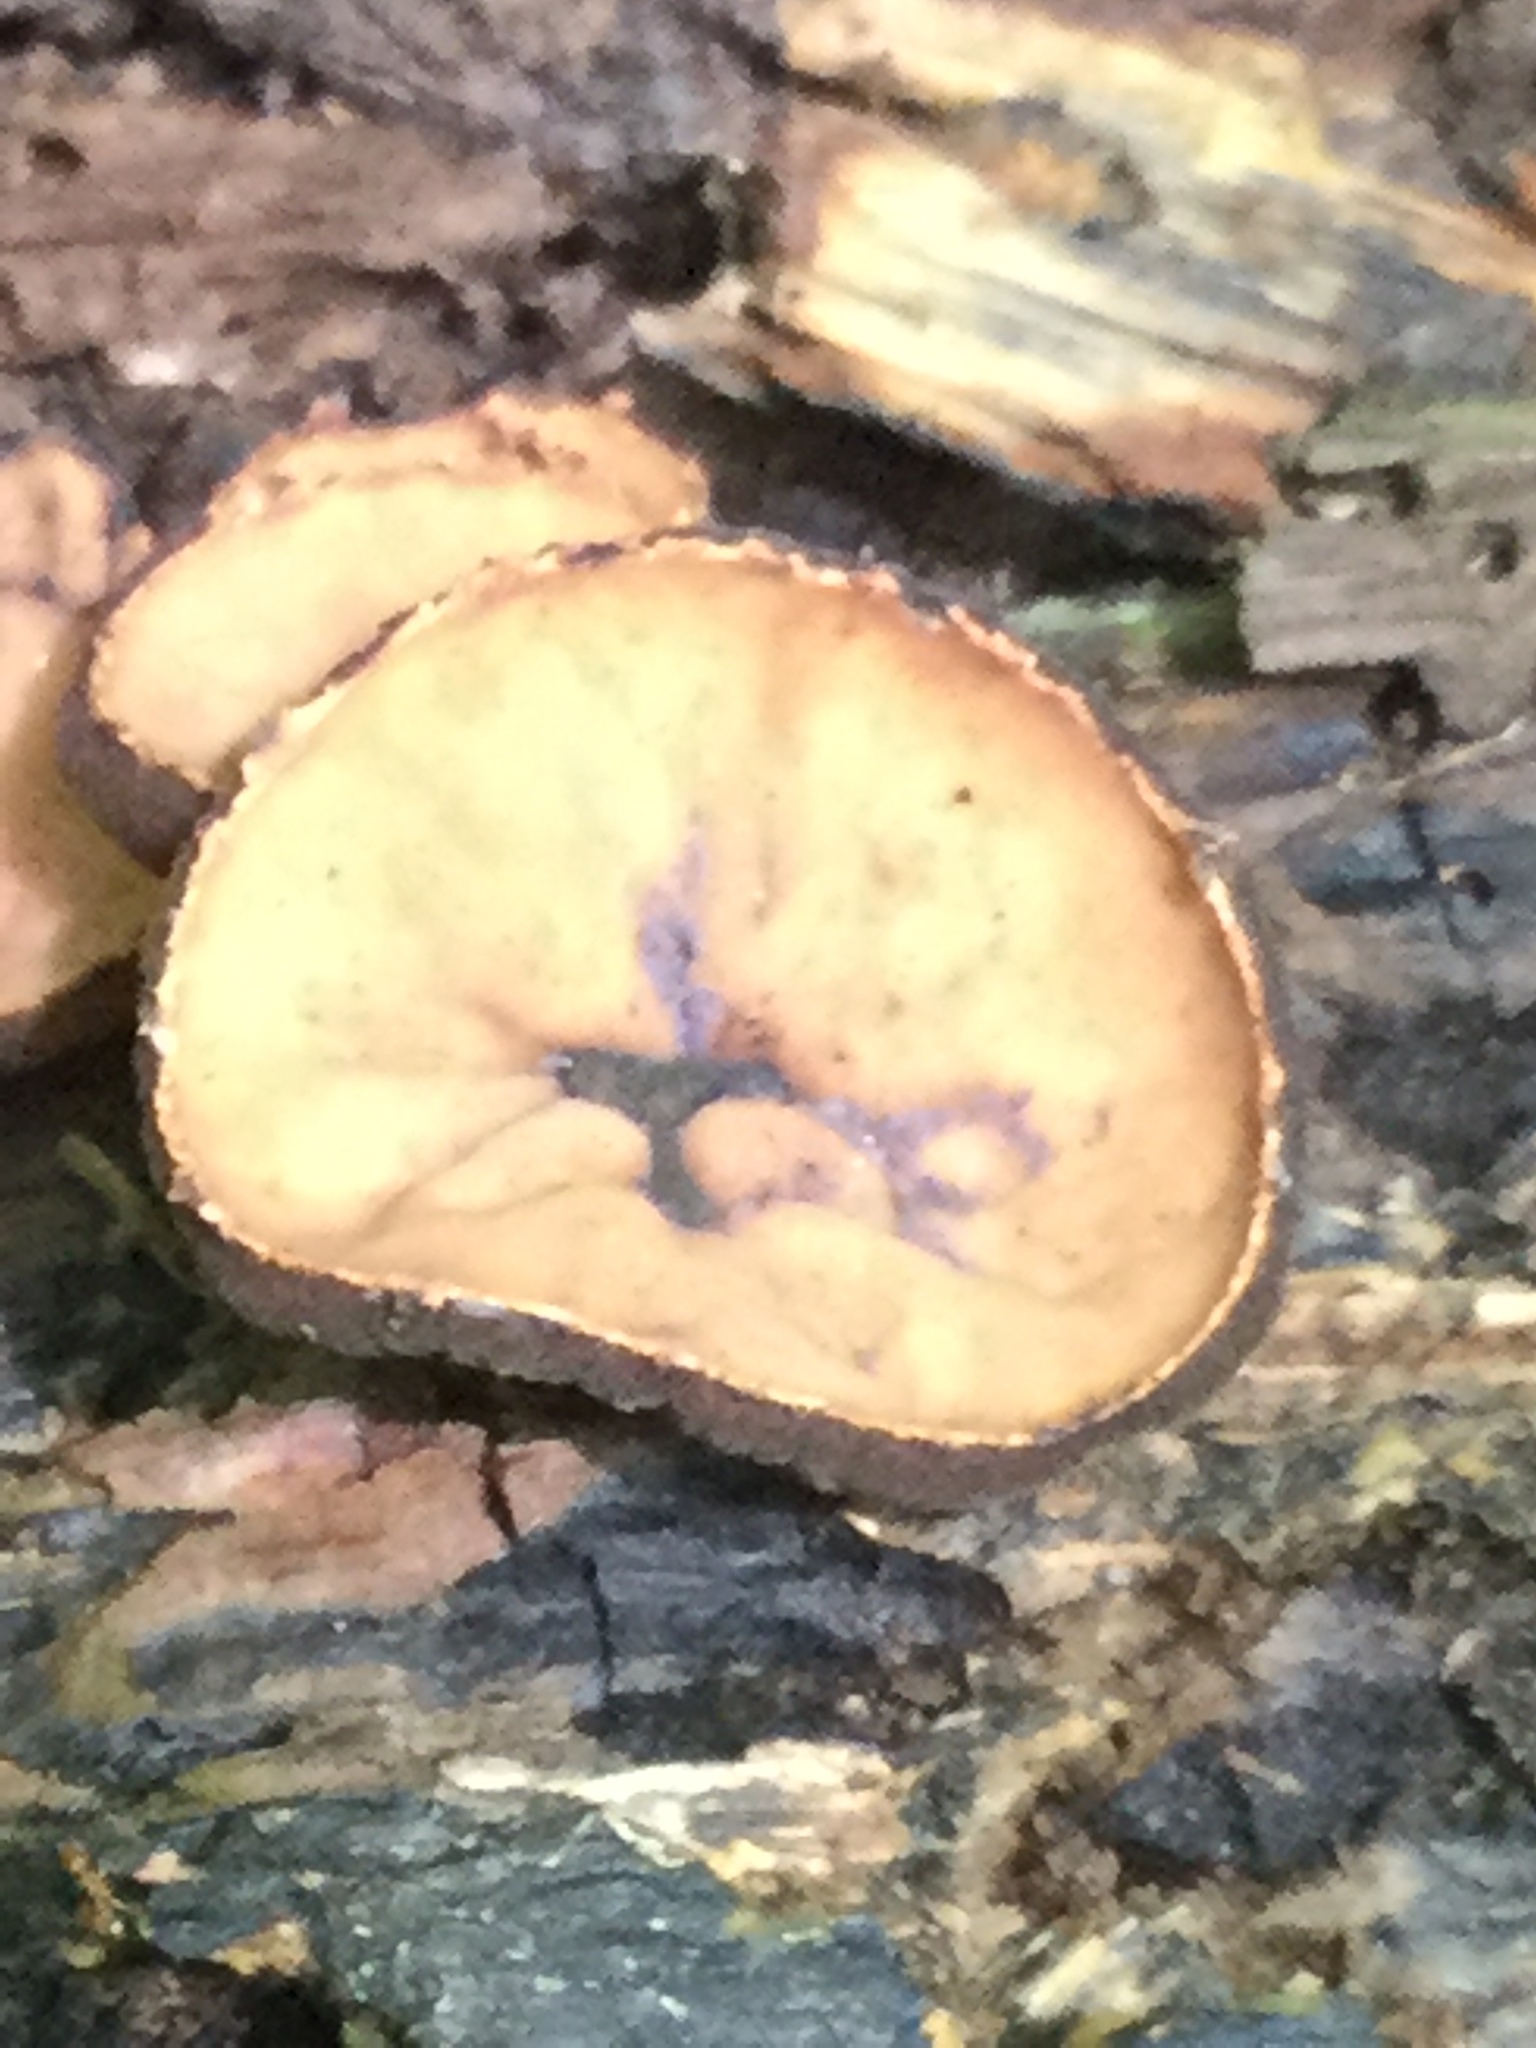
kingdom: Fungi
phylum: Ascomycota
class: Pezizomycetes
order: Pezizales
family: Sarcosomataceae
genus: Galiella
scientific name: Galiella rufa
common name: Hairy rubber cup
